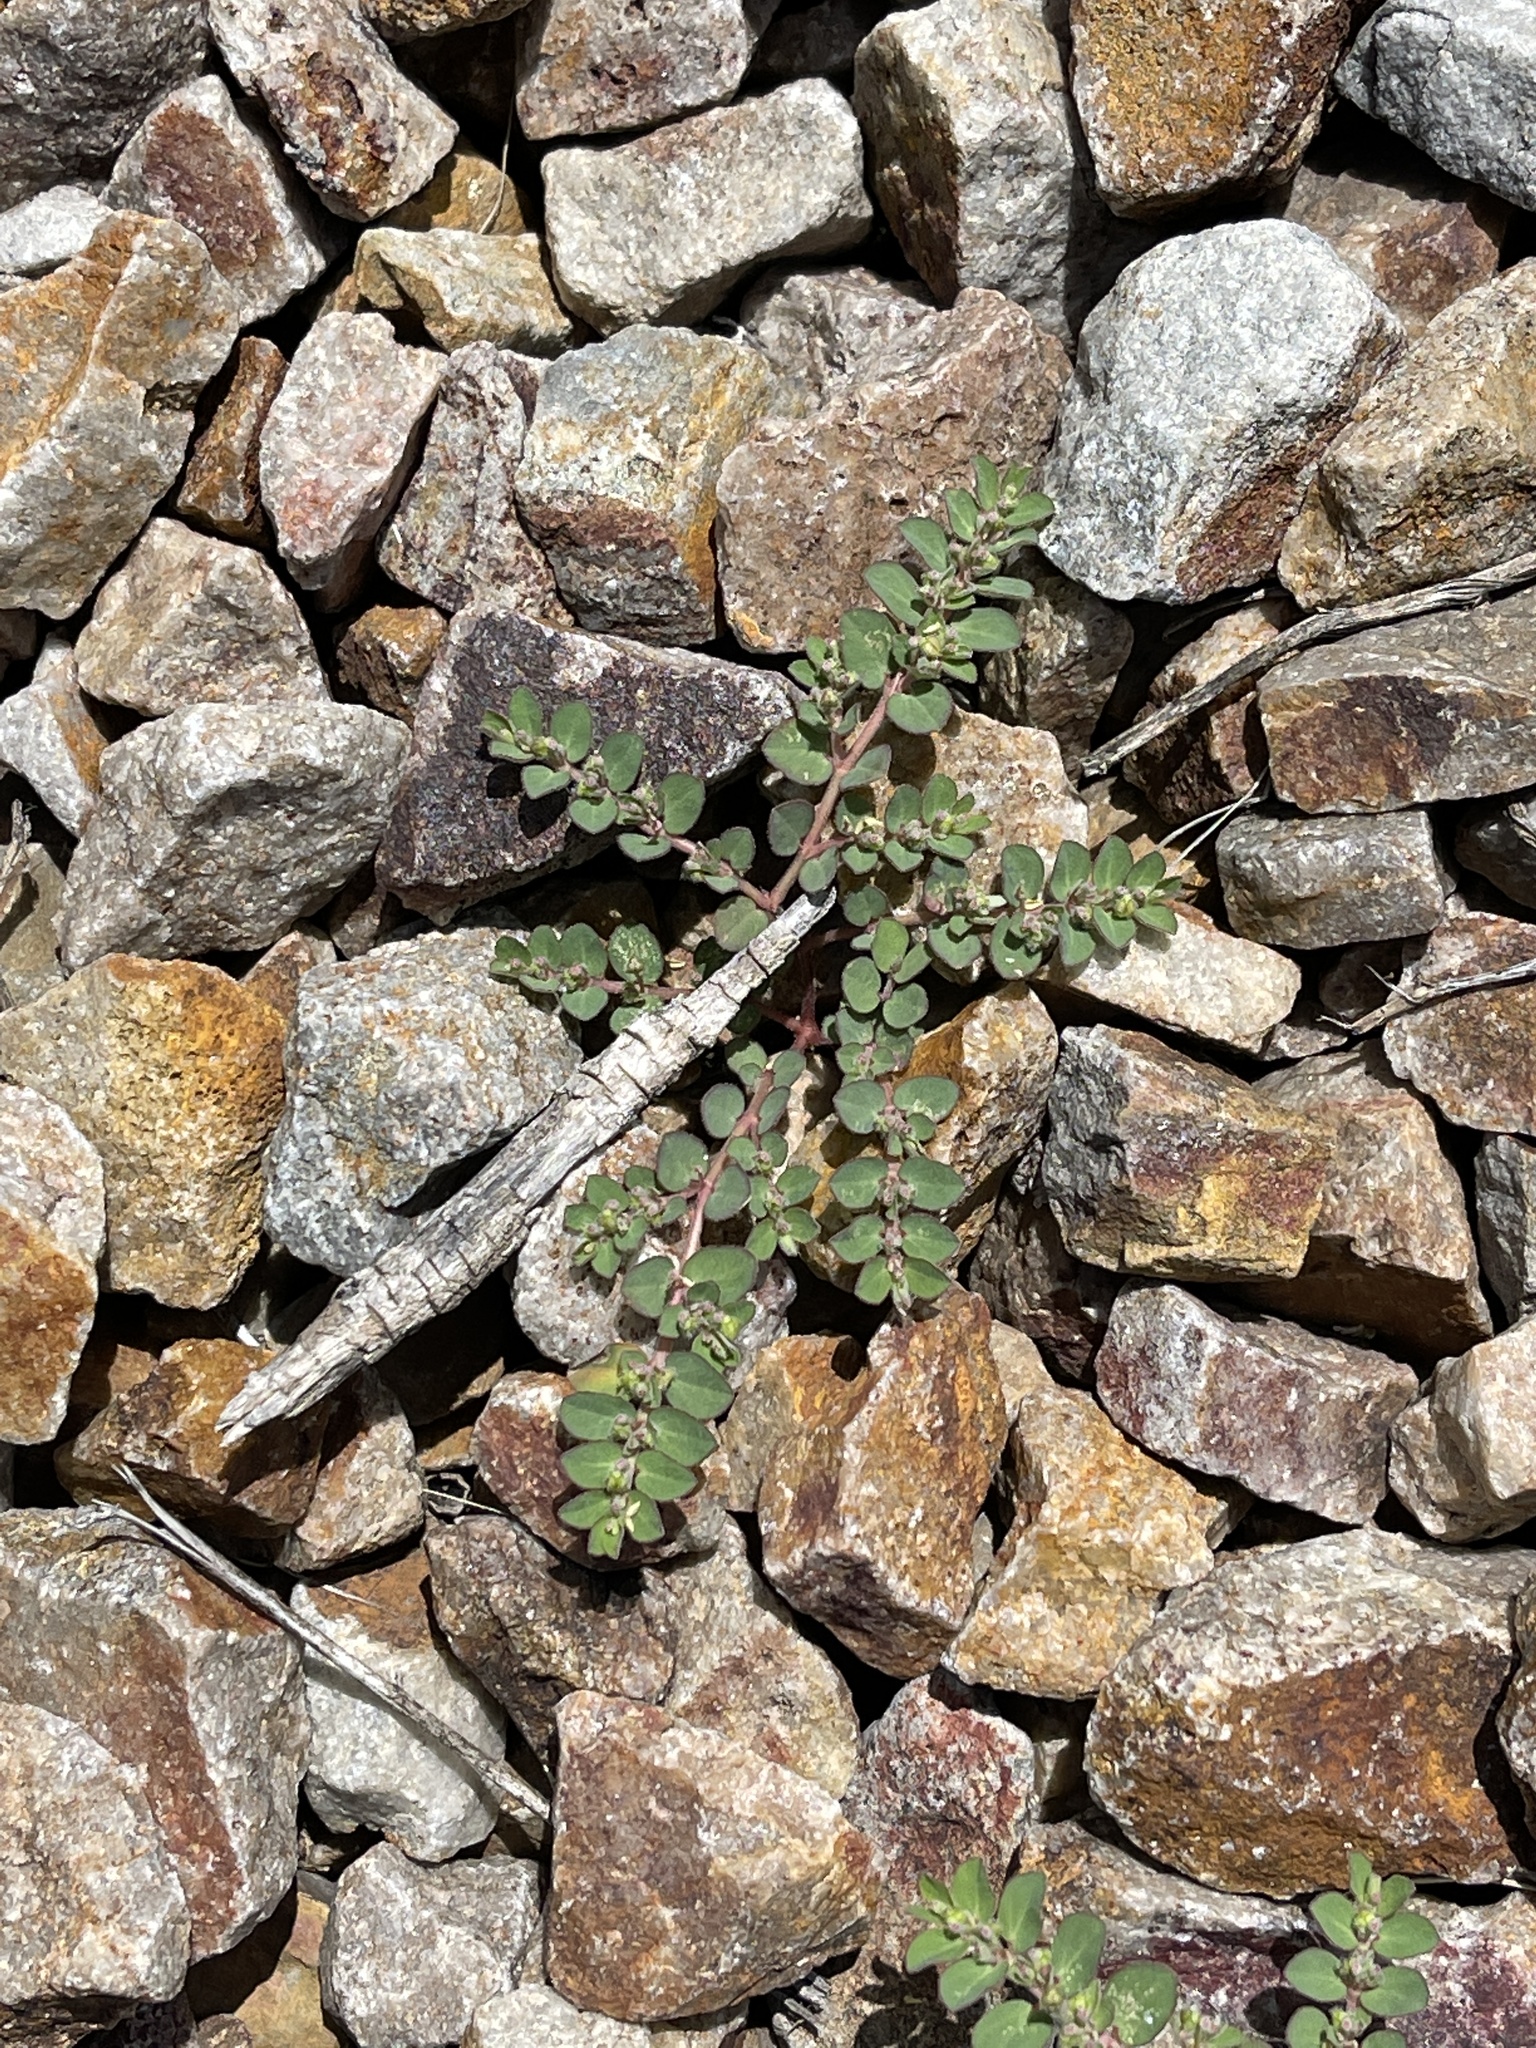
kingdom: Plantae
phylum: Tracheophyta
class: Magnoliopsida
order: Malpighiales
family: Euphorbiaceae
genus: Euphorbia
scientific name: Euphorbia prostrata
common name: Prostrate sandmat
